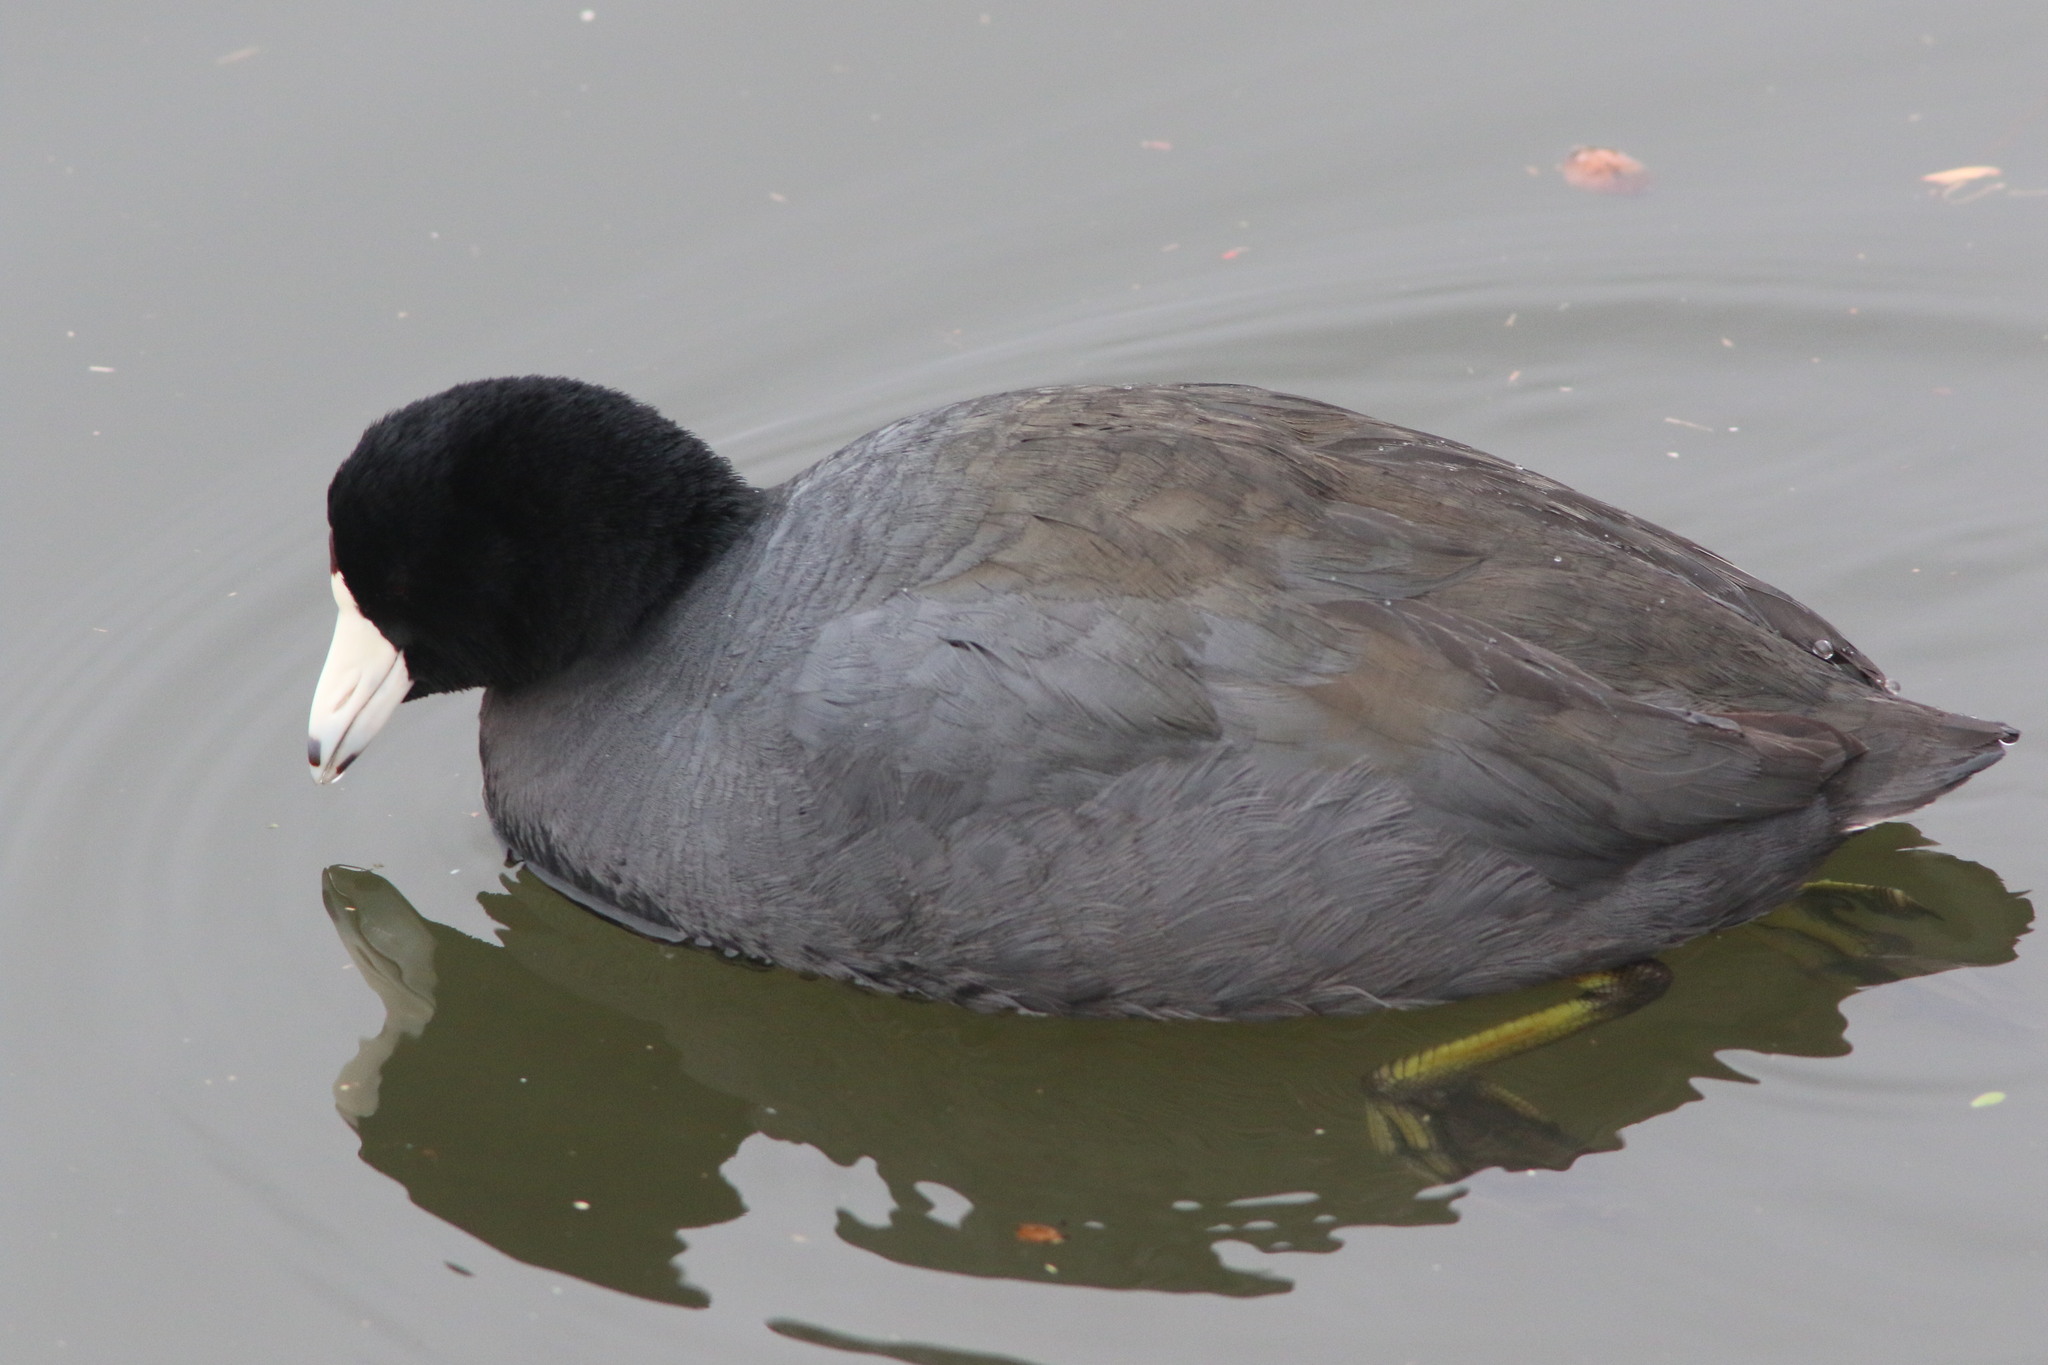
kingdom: Animalia
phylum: Chordata
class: Aves
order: Gruiformes
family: Rallidae
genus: Fulica
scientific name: Fulica americana
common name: American coot
